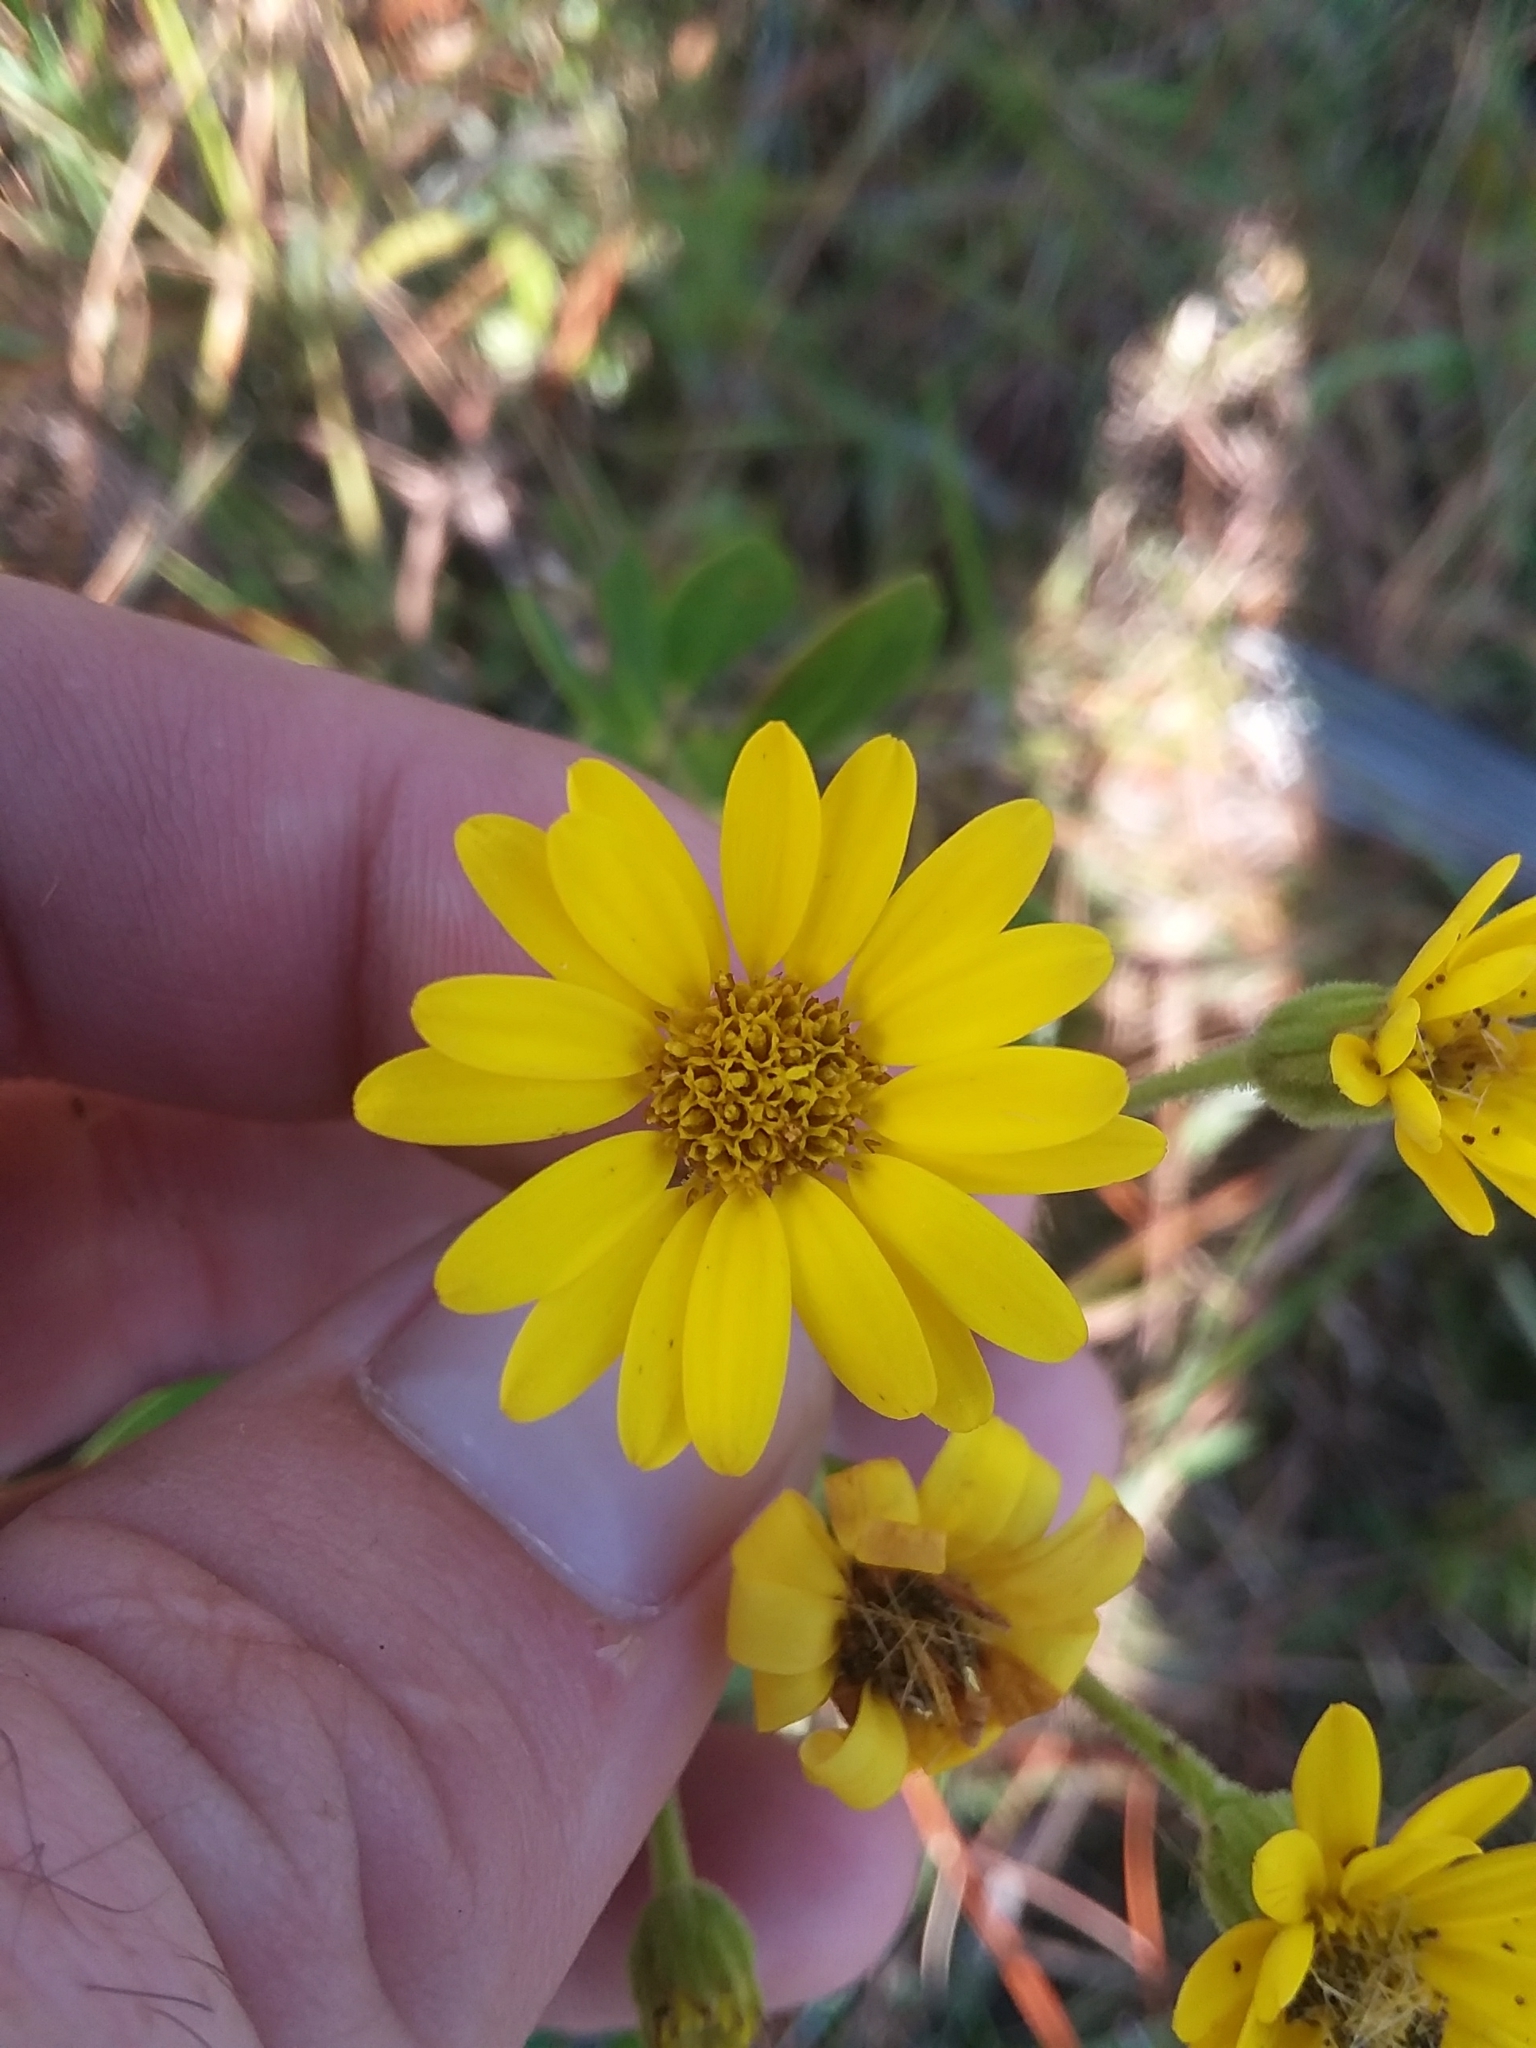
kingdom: Plantae
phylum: Tracheophyta
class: Magnoliopsida
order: Asterales
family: Asteraceae
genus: Chrysopsis
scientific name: Chrysopsis mariana
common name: Maryland golden-aster
